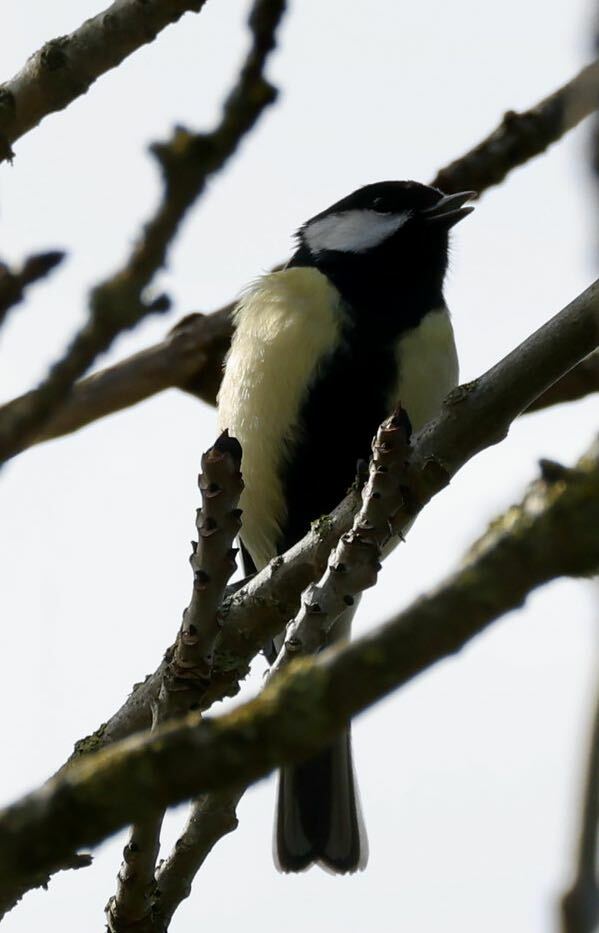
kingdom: Animalia
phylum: Chordata
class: Aves
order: Passeriformes
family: Paridae
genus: Parus
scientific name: Parus major
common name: Great tit
